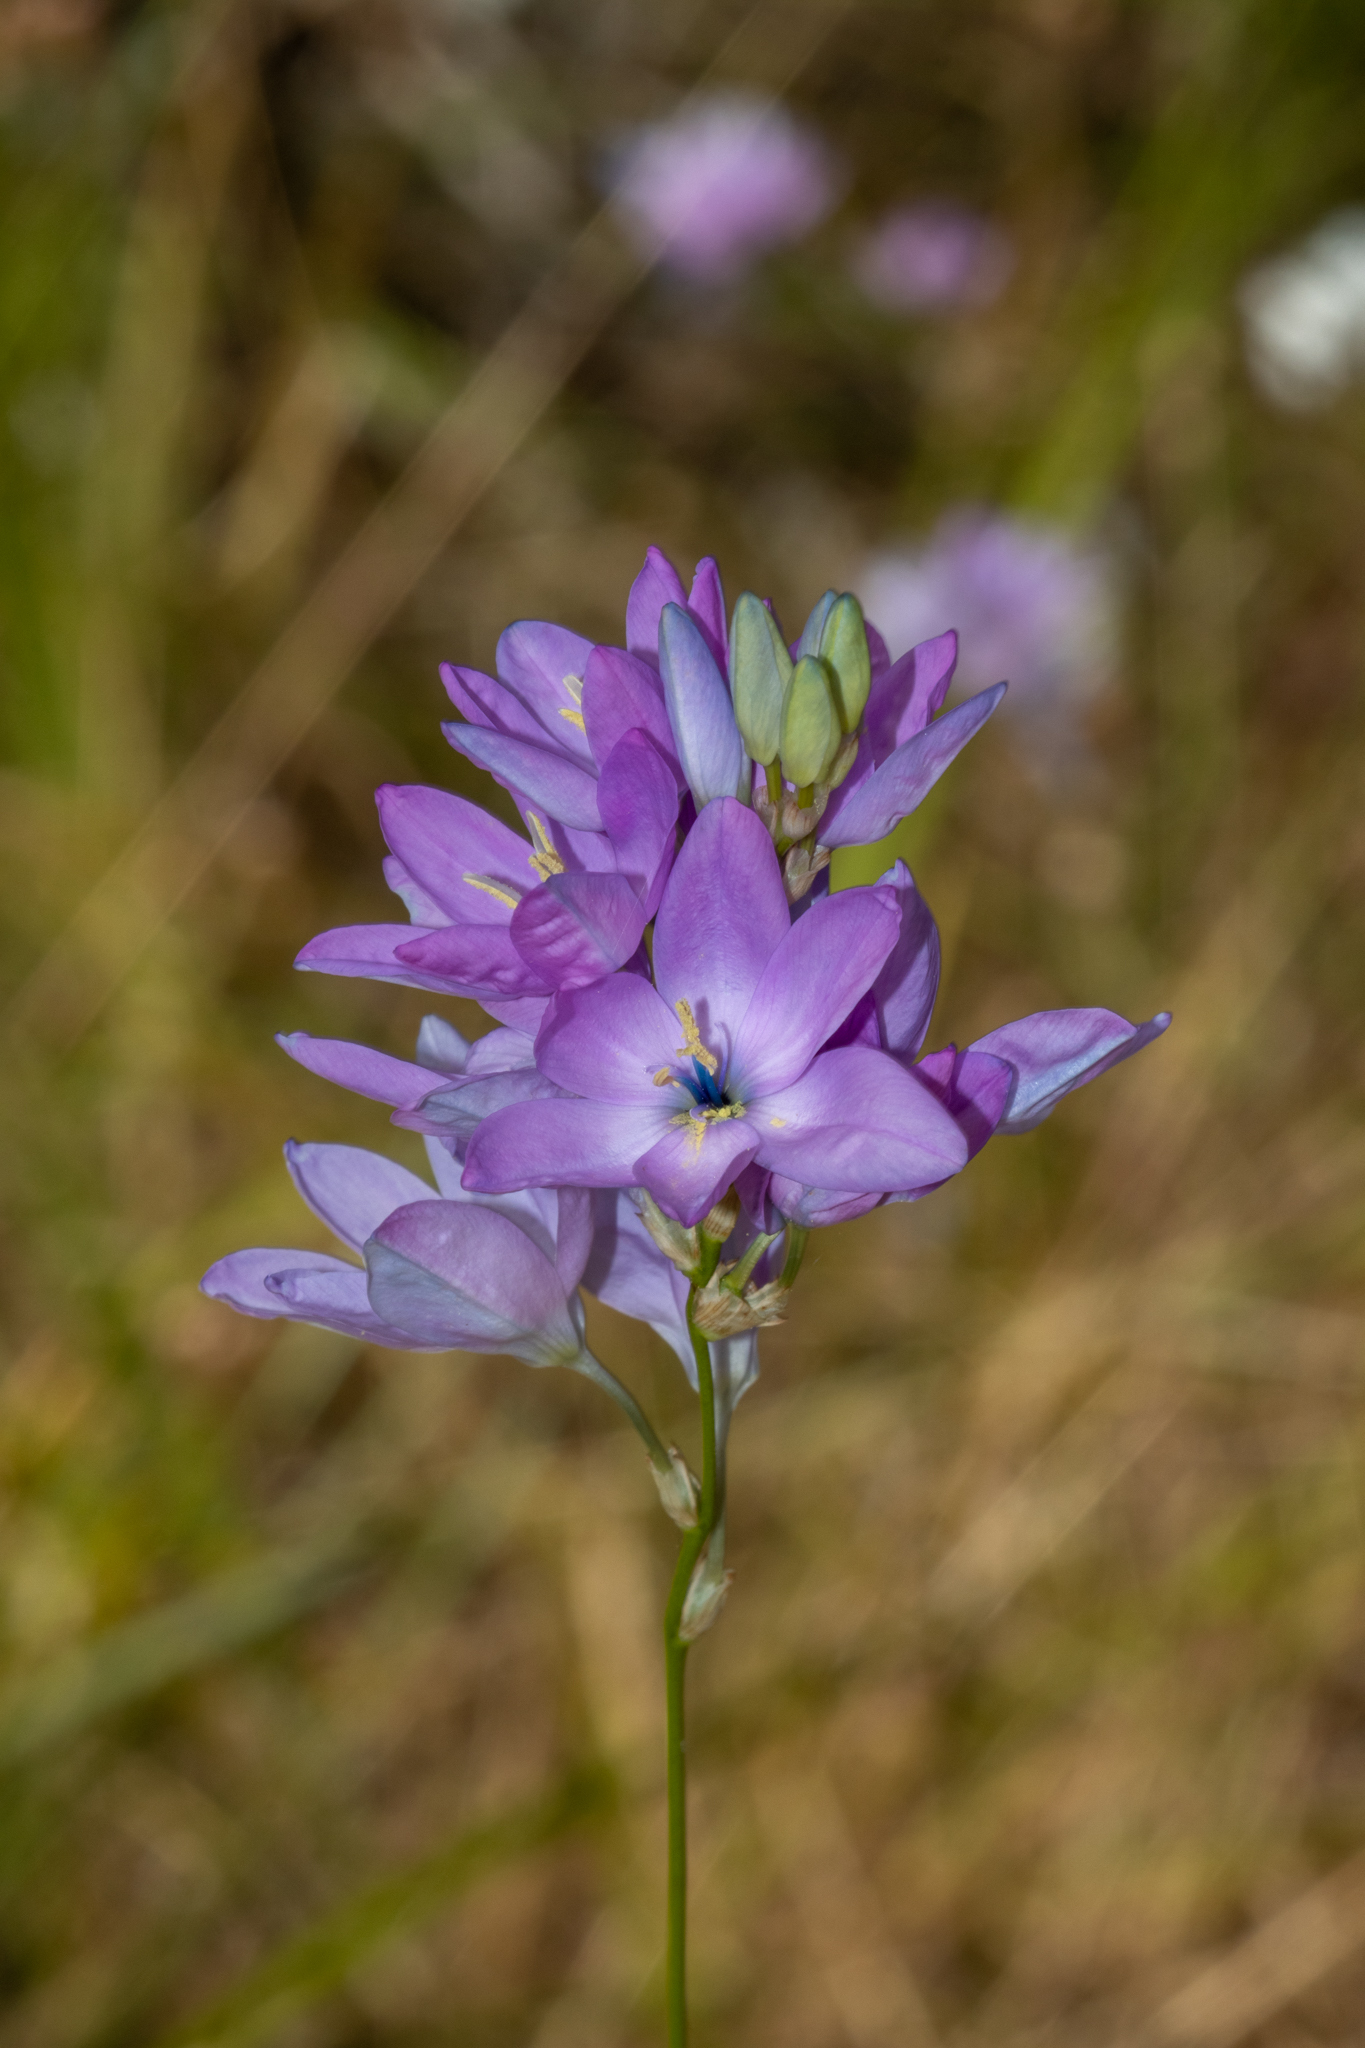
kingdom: Plantae
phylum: Tracheophyta
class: Liliopsida
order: Asparagales
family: Iridaceae
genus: Ixia
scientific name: Ixia polystachya
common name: White-and-yellow-flower cornlily
